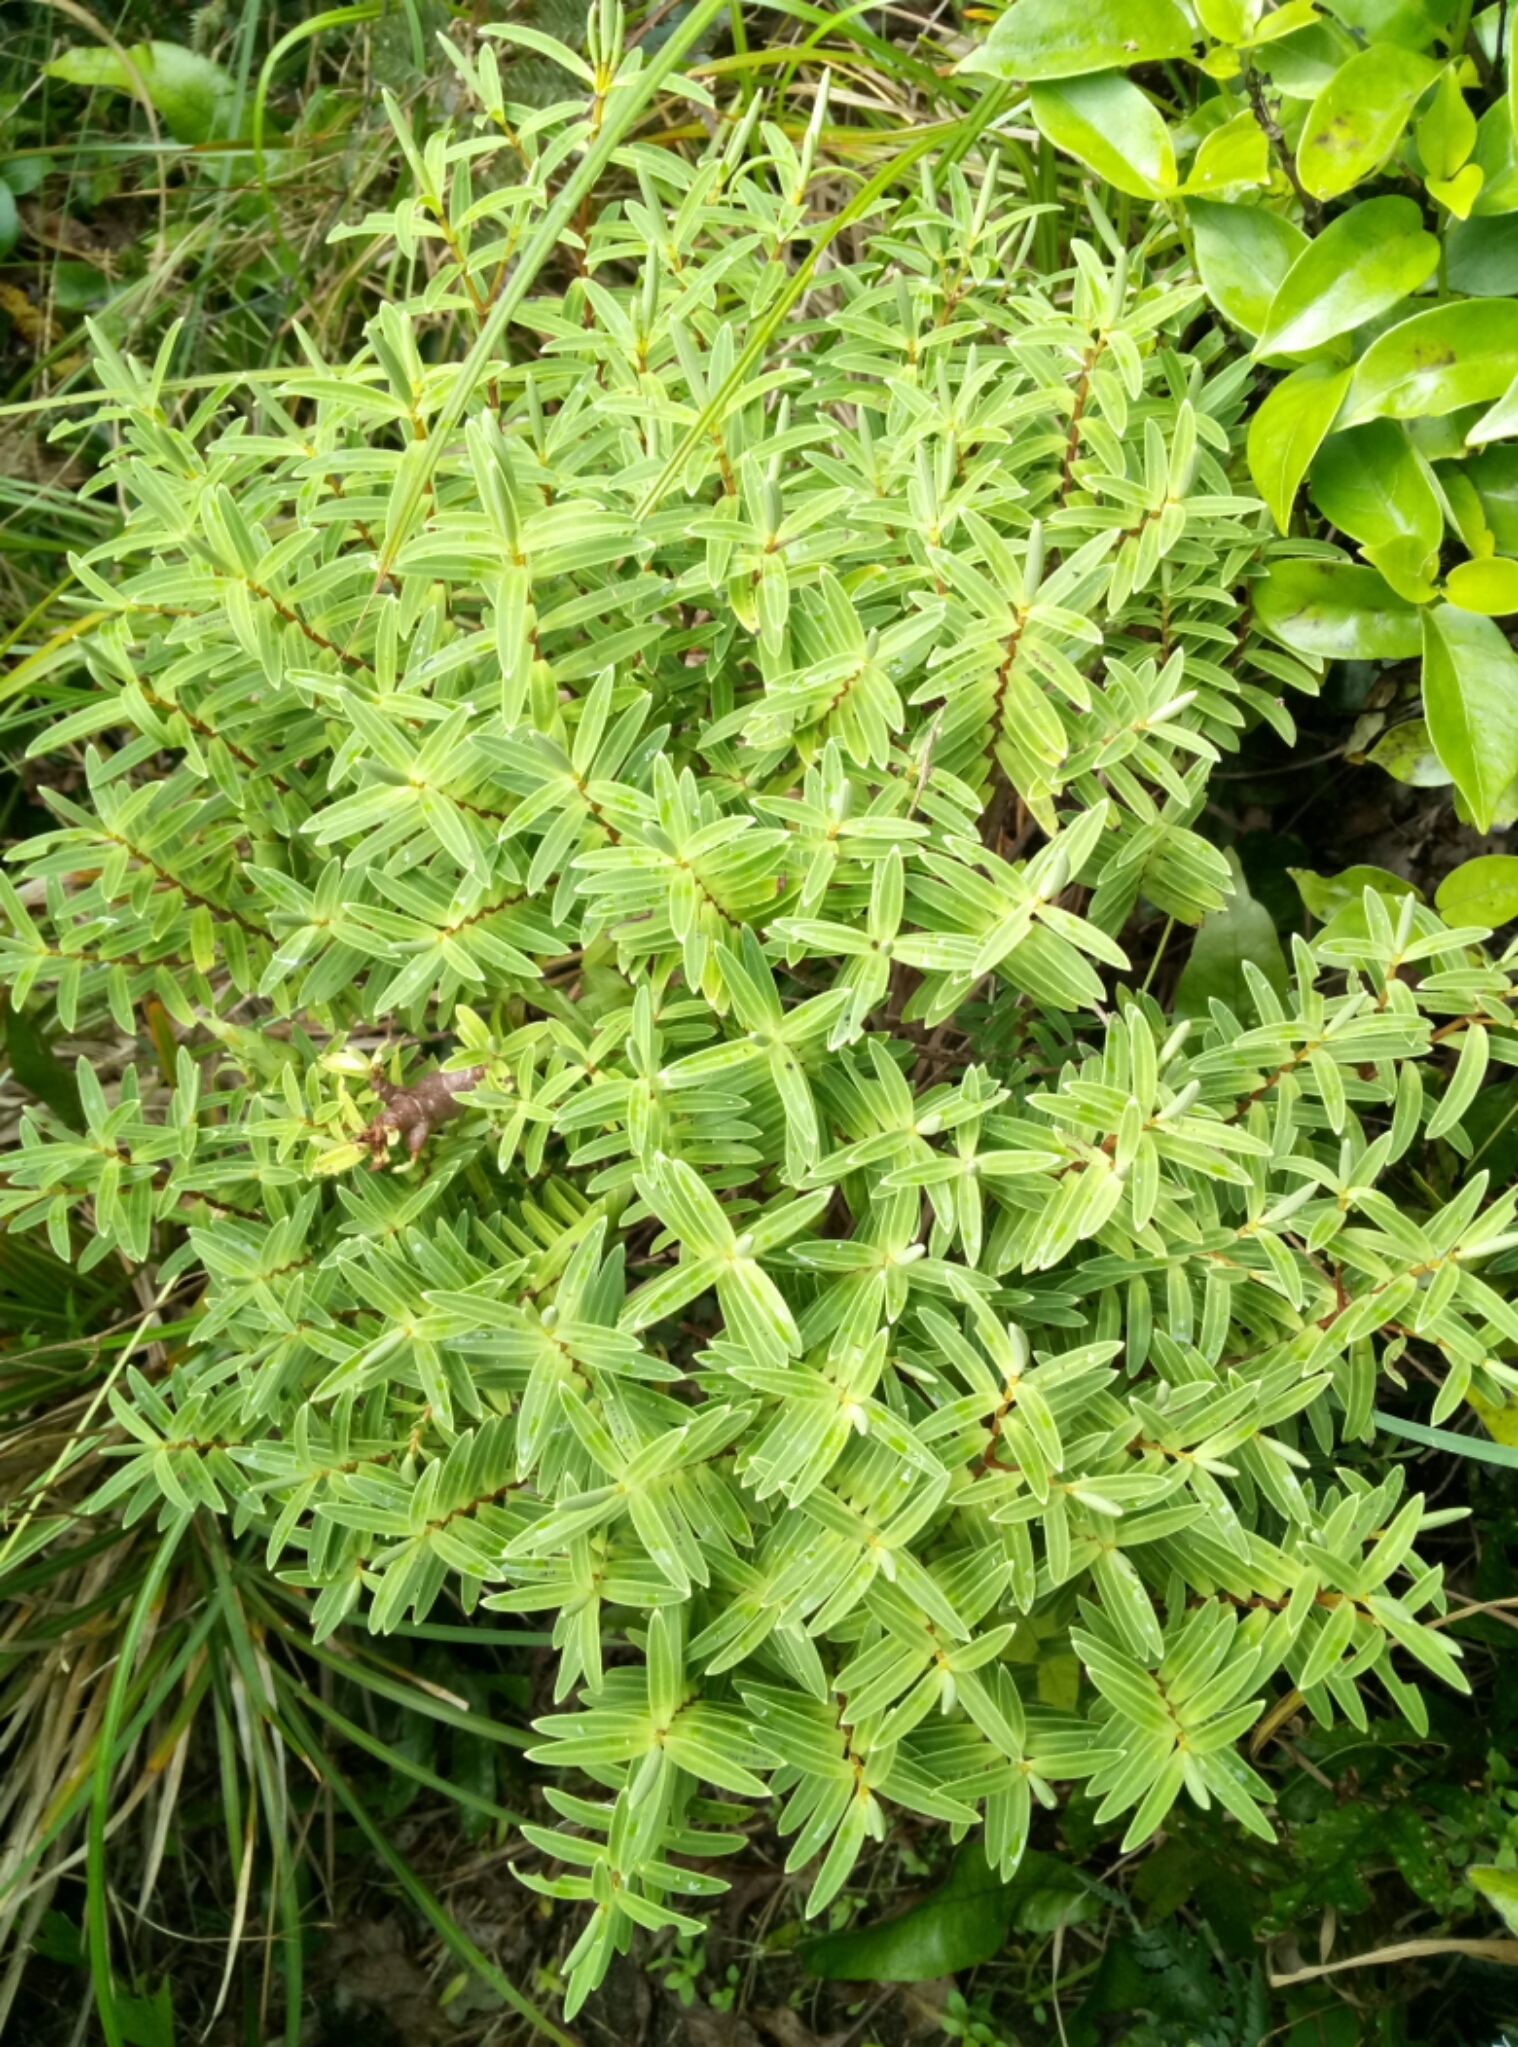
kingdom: Plantae
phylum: Tracheophyta
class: Magnoliopsida
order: Lamiales
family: Plantaginaceae
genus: Veronica
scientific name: Veronica parviflora
